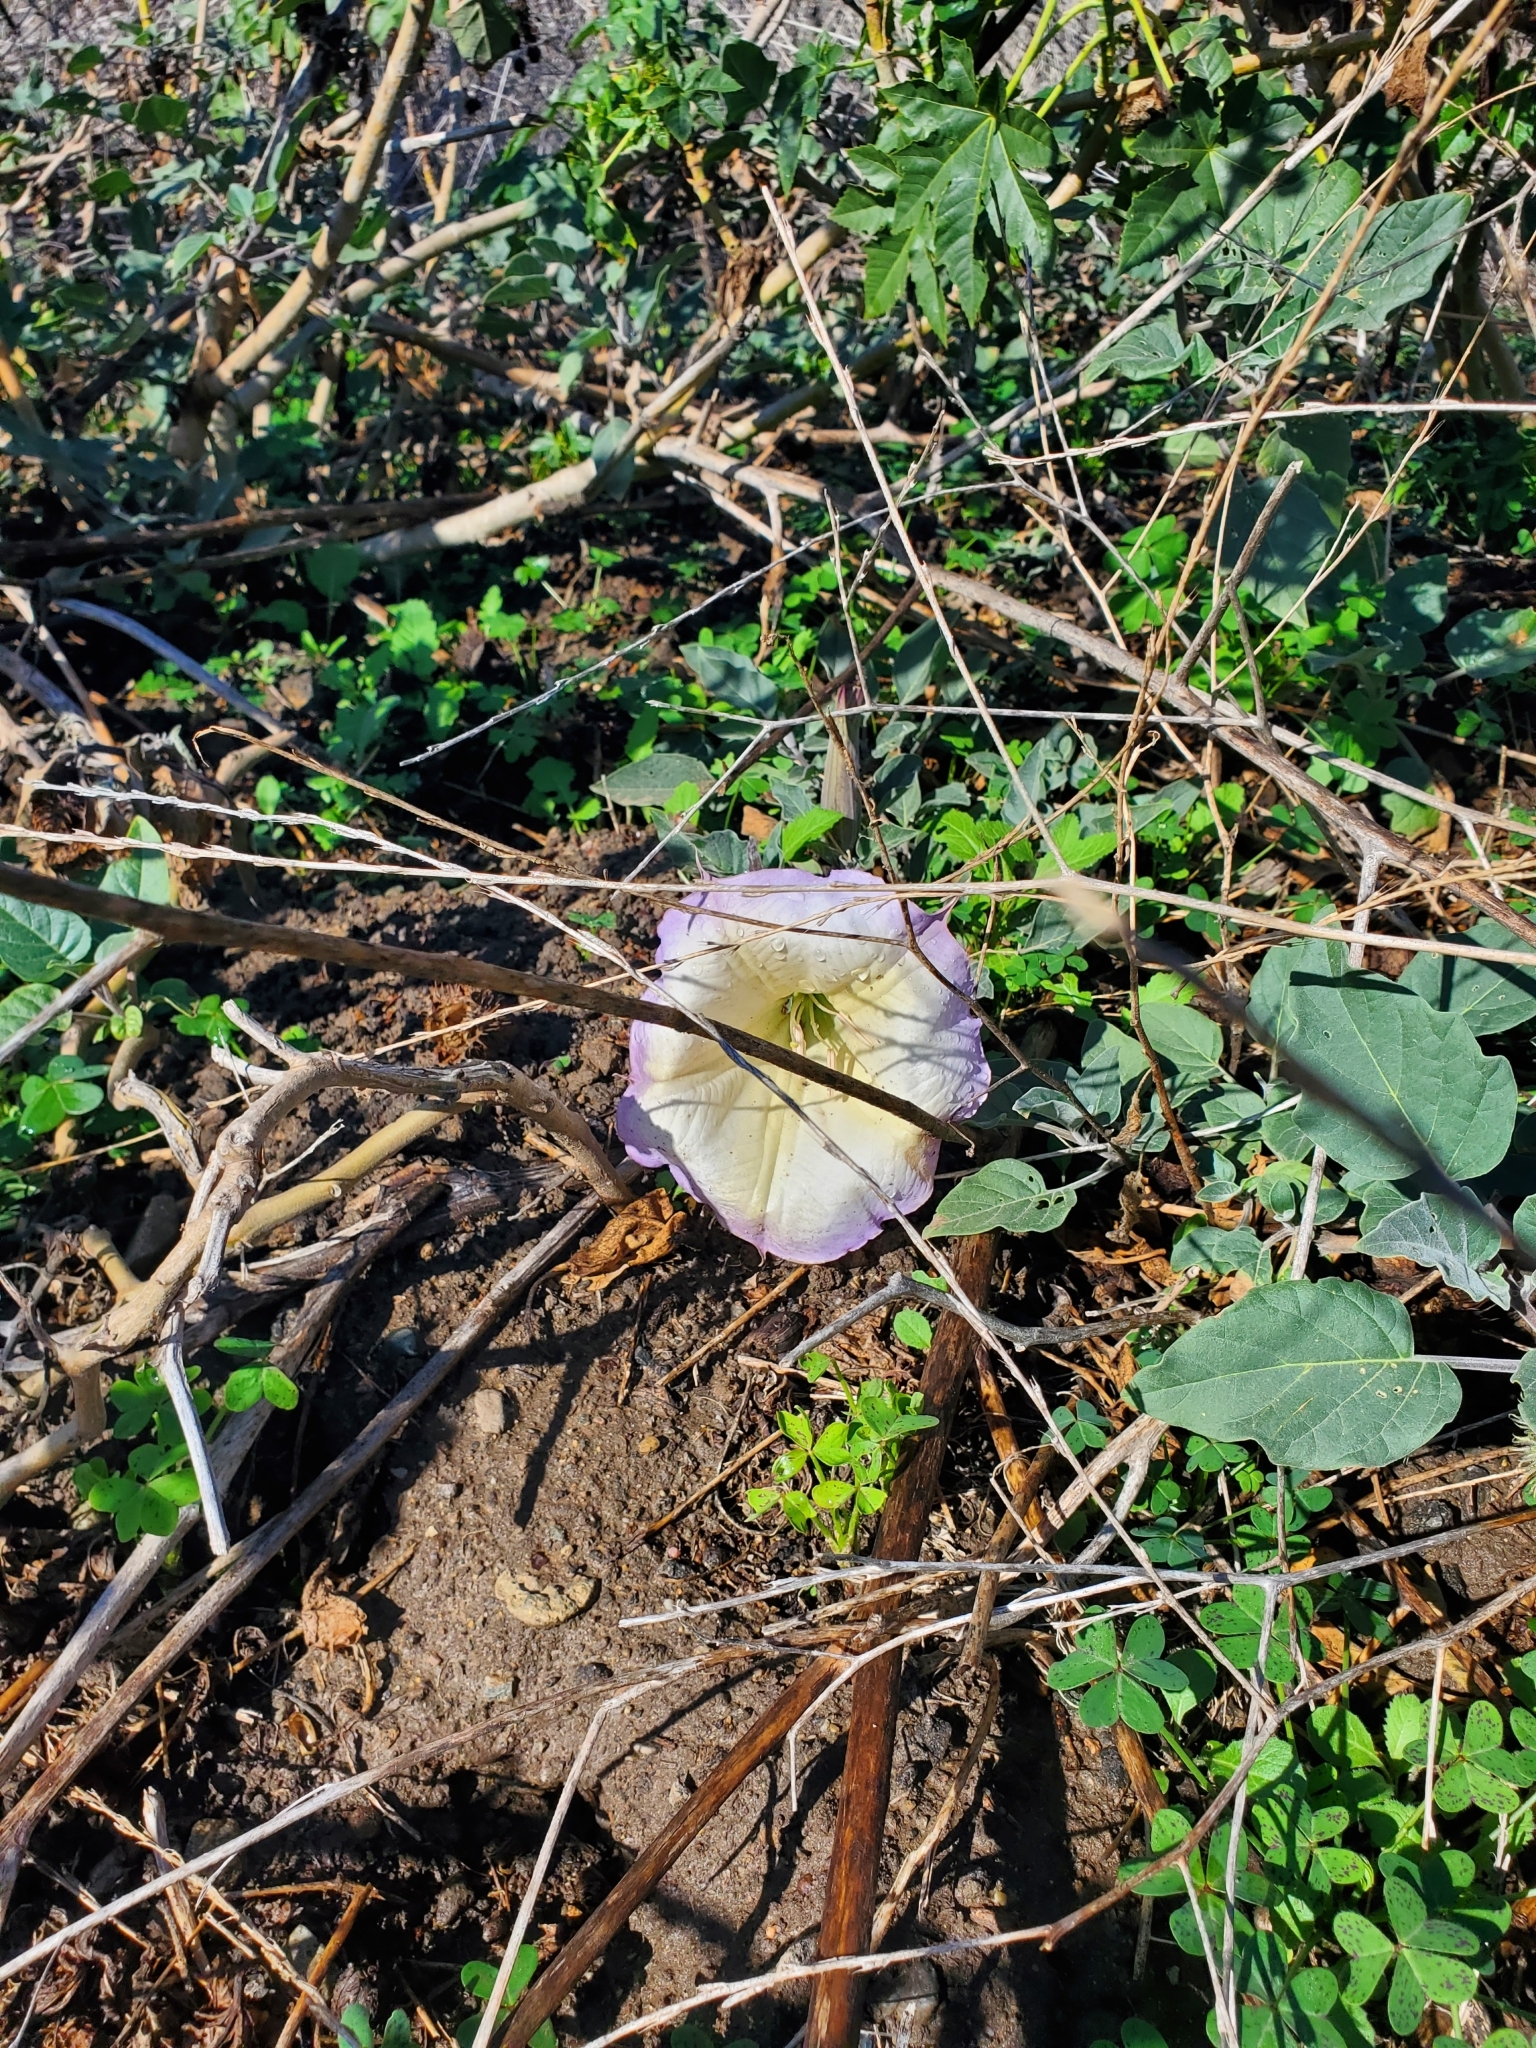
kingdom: Plantae
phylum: Tracheophyta
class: Magnoliopsida
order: Solanales
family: Solanaceae
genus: Datura
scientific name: Datura wrightii
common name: Sacred thorn-apple
